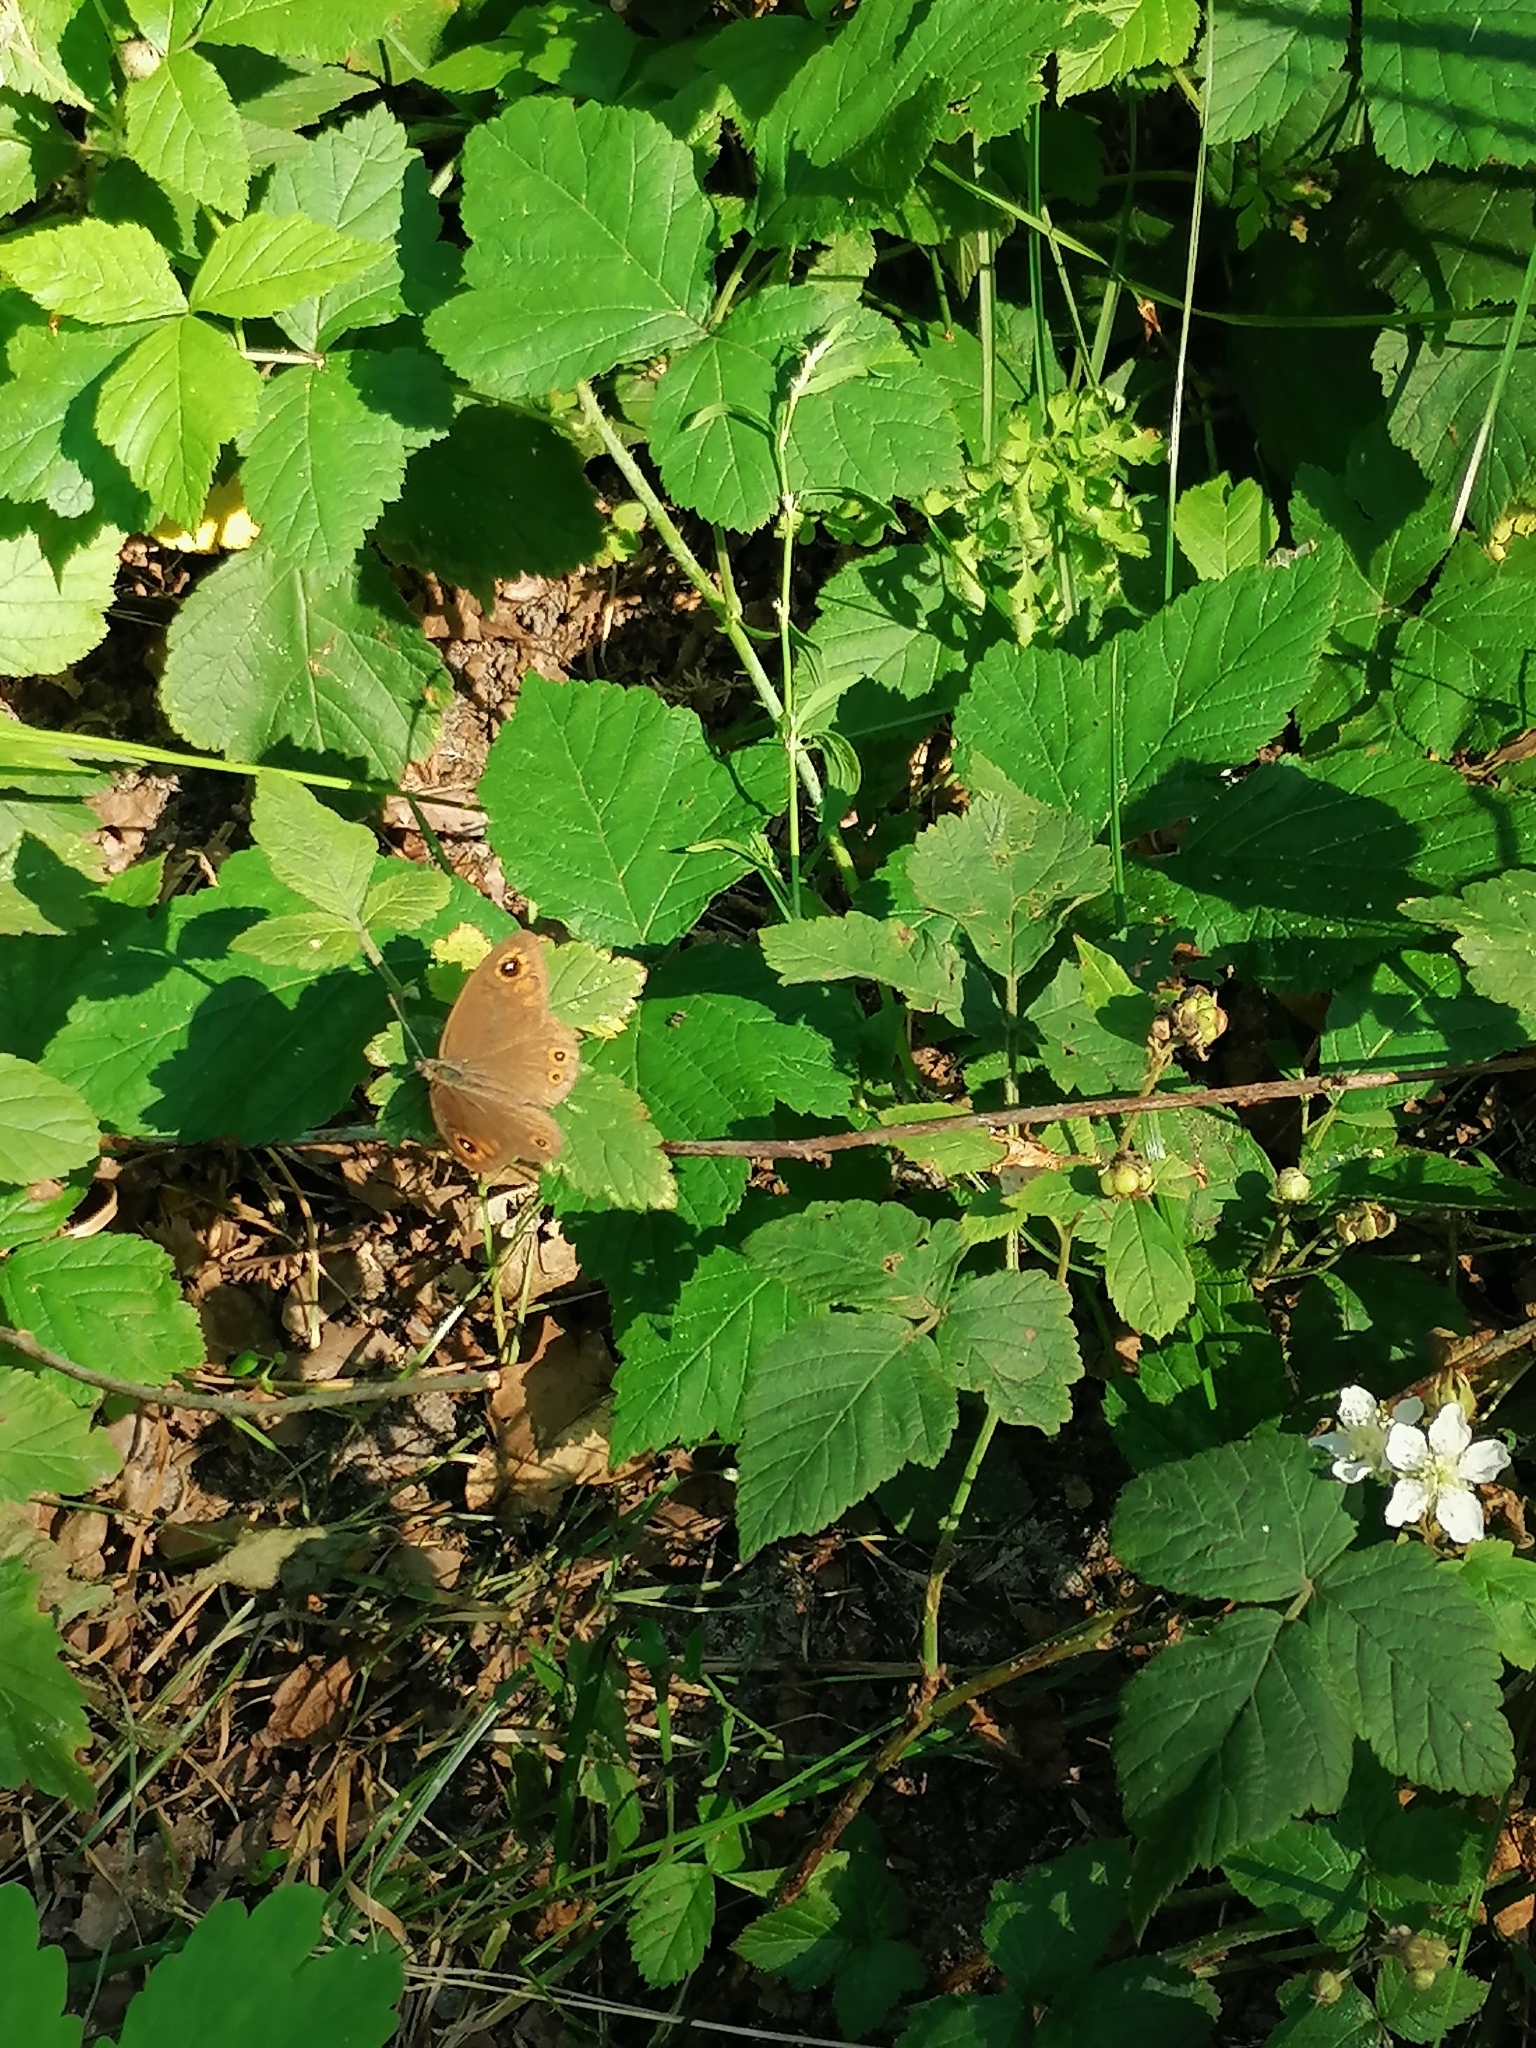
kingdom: Animalia
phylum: Arthropoda
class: Insecta
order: Lepidoptera
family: Nymphalidae
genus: Pararge
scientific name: Pararge Lasiommata maera
